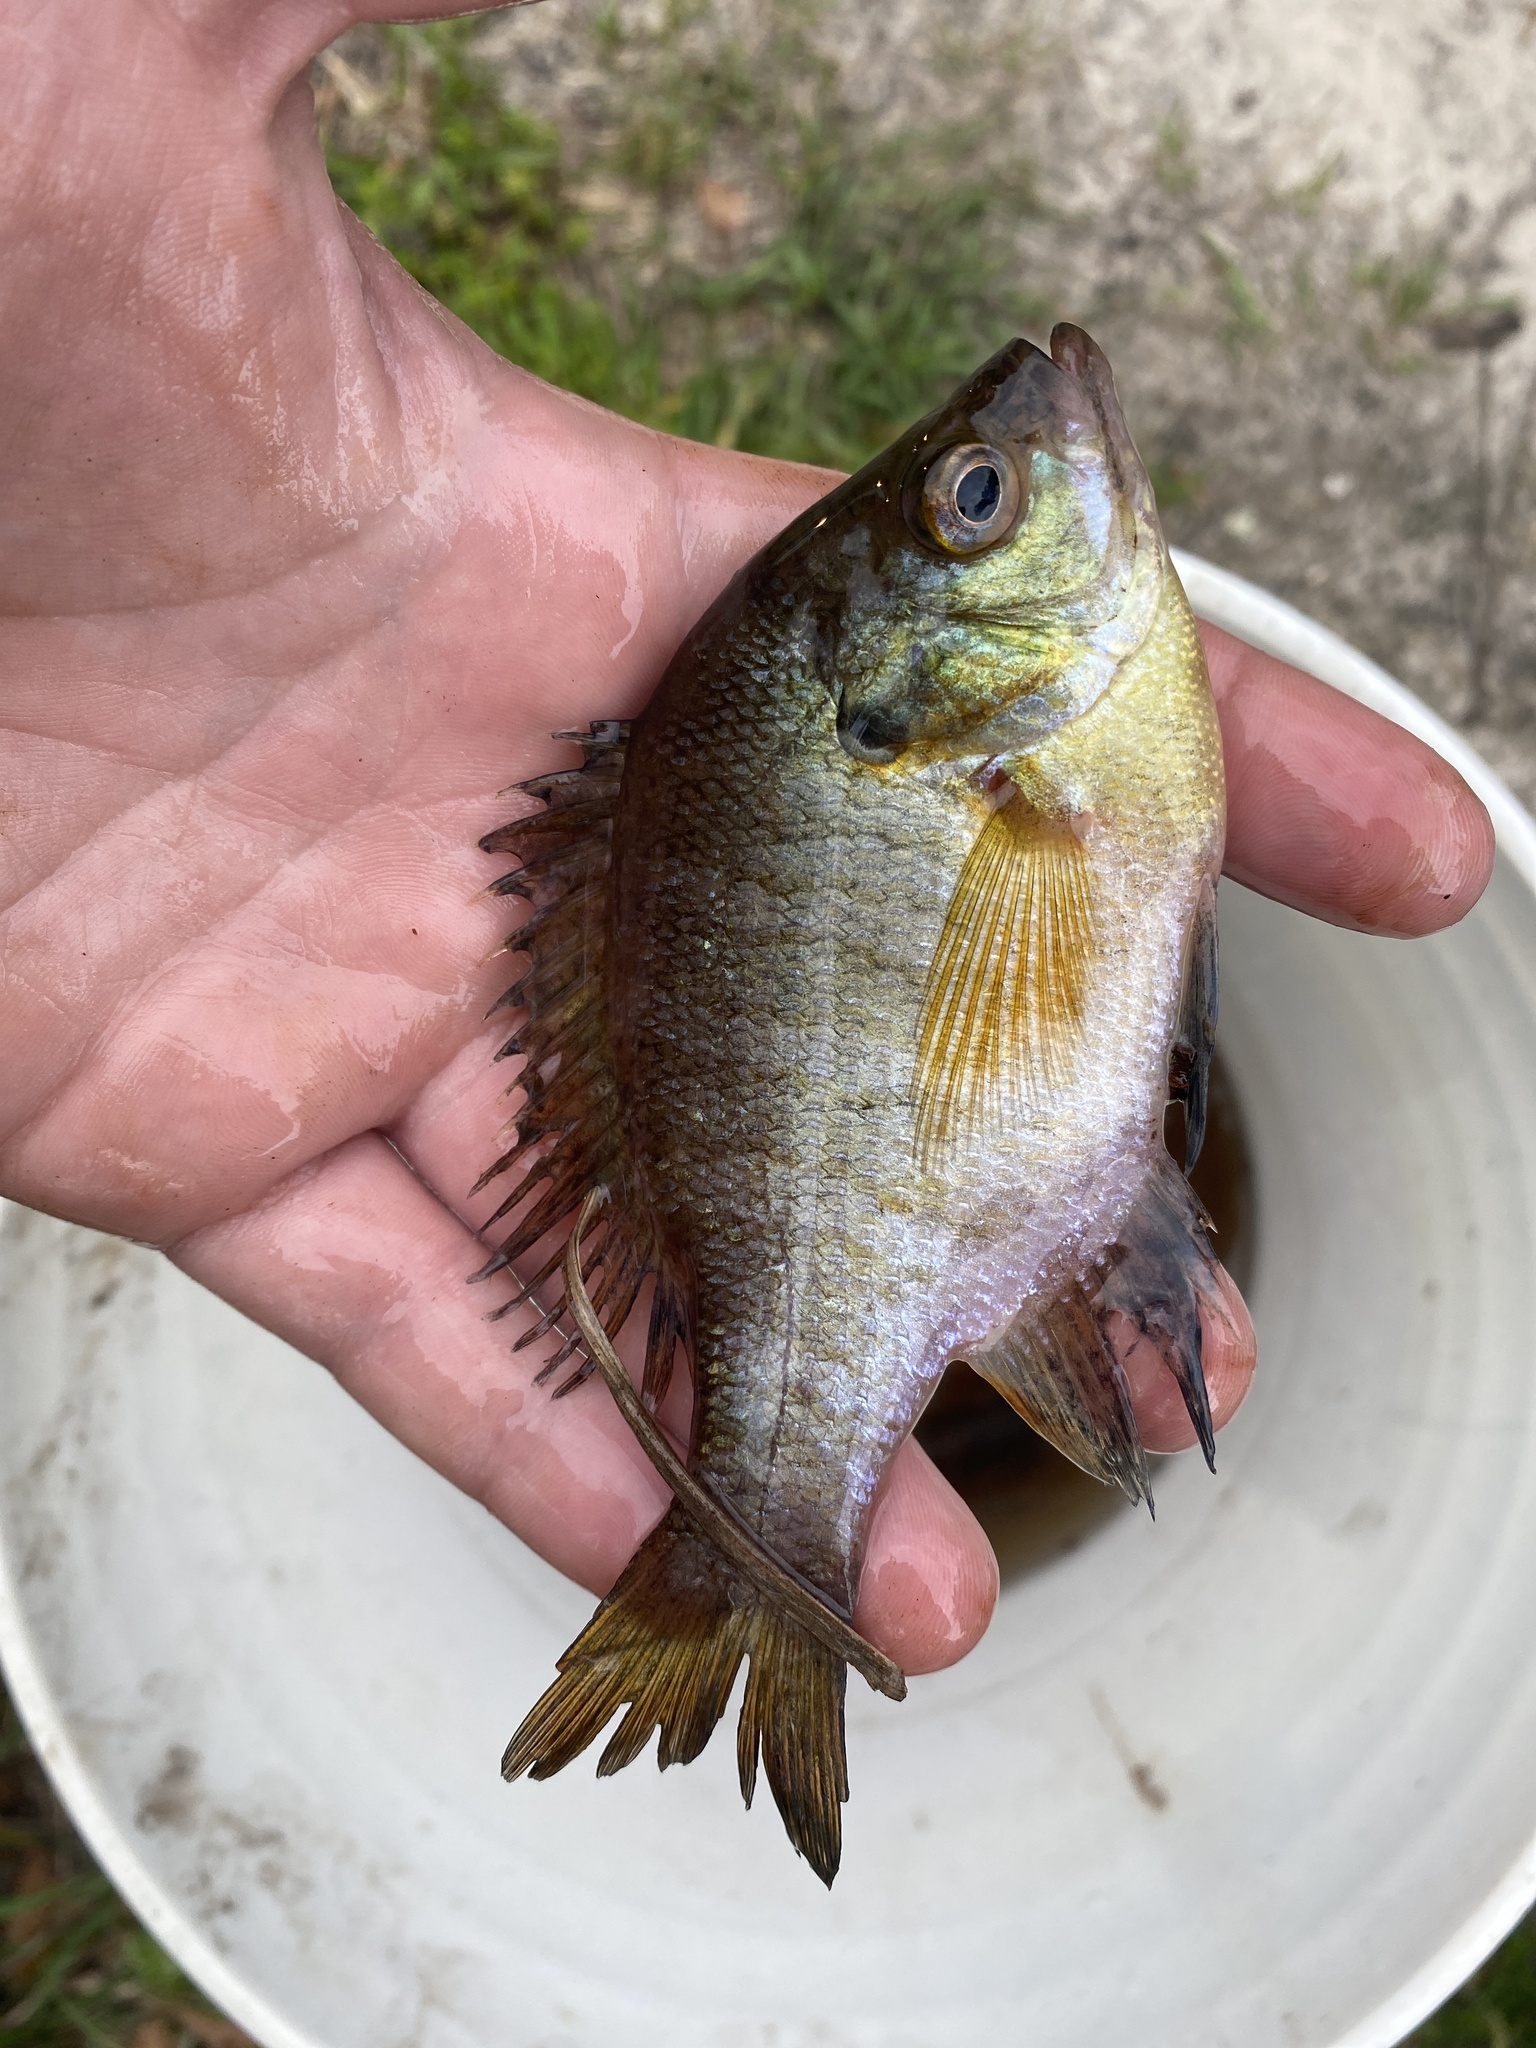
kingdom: Animalia
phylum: Chordata
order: Perciformes
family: Centrarchidae
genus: Lepomis
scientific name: Lepomis macrochirus
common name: Bluegill
